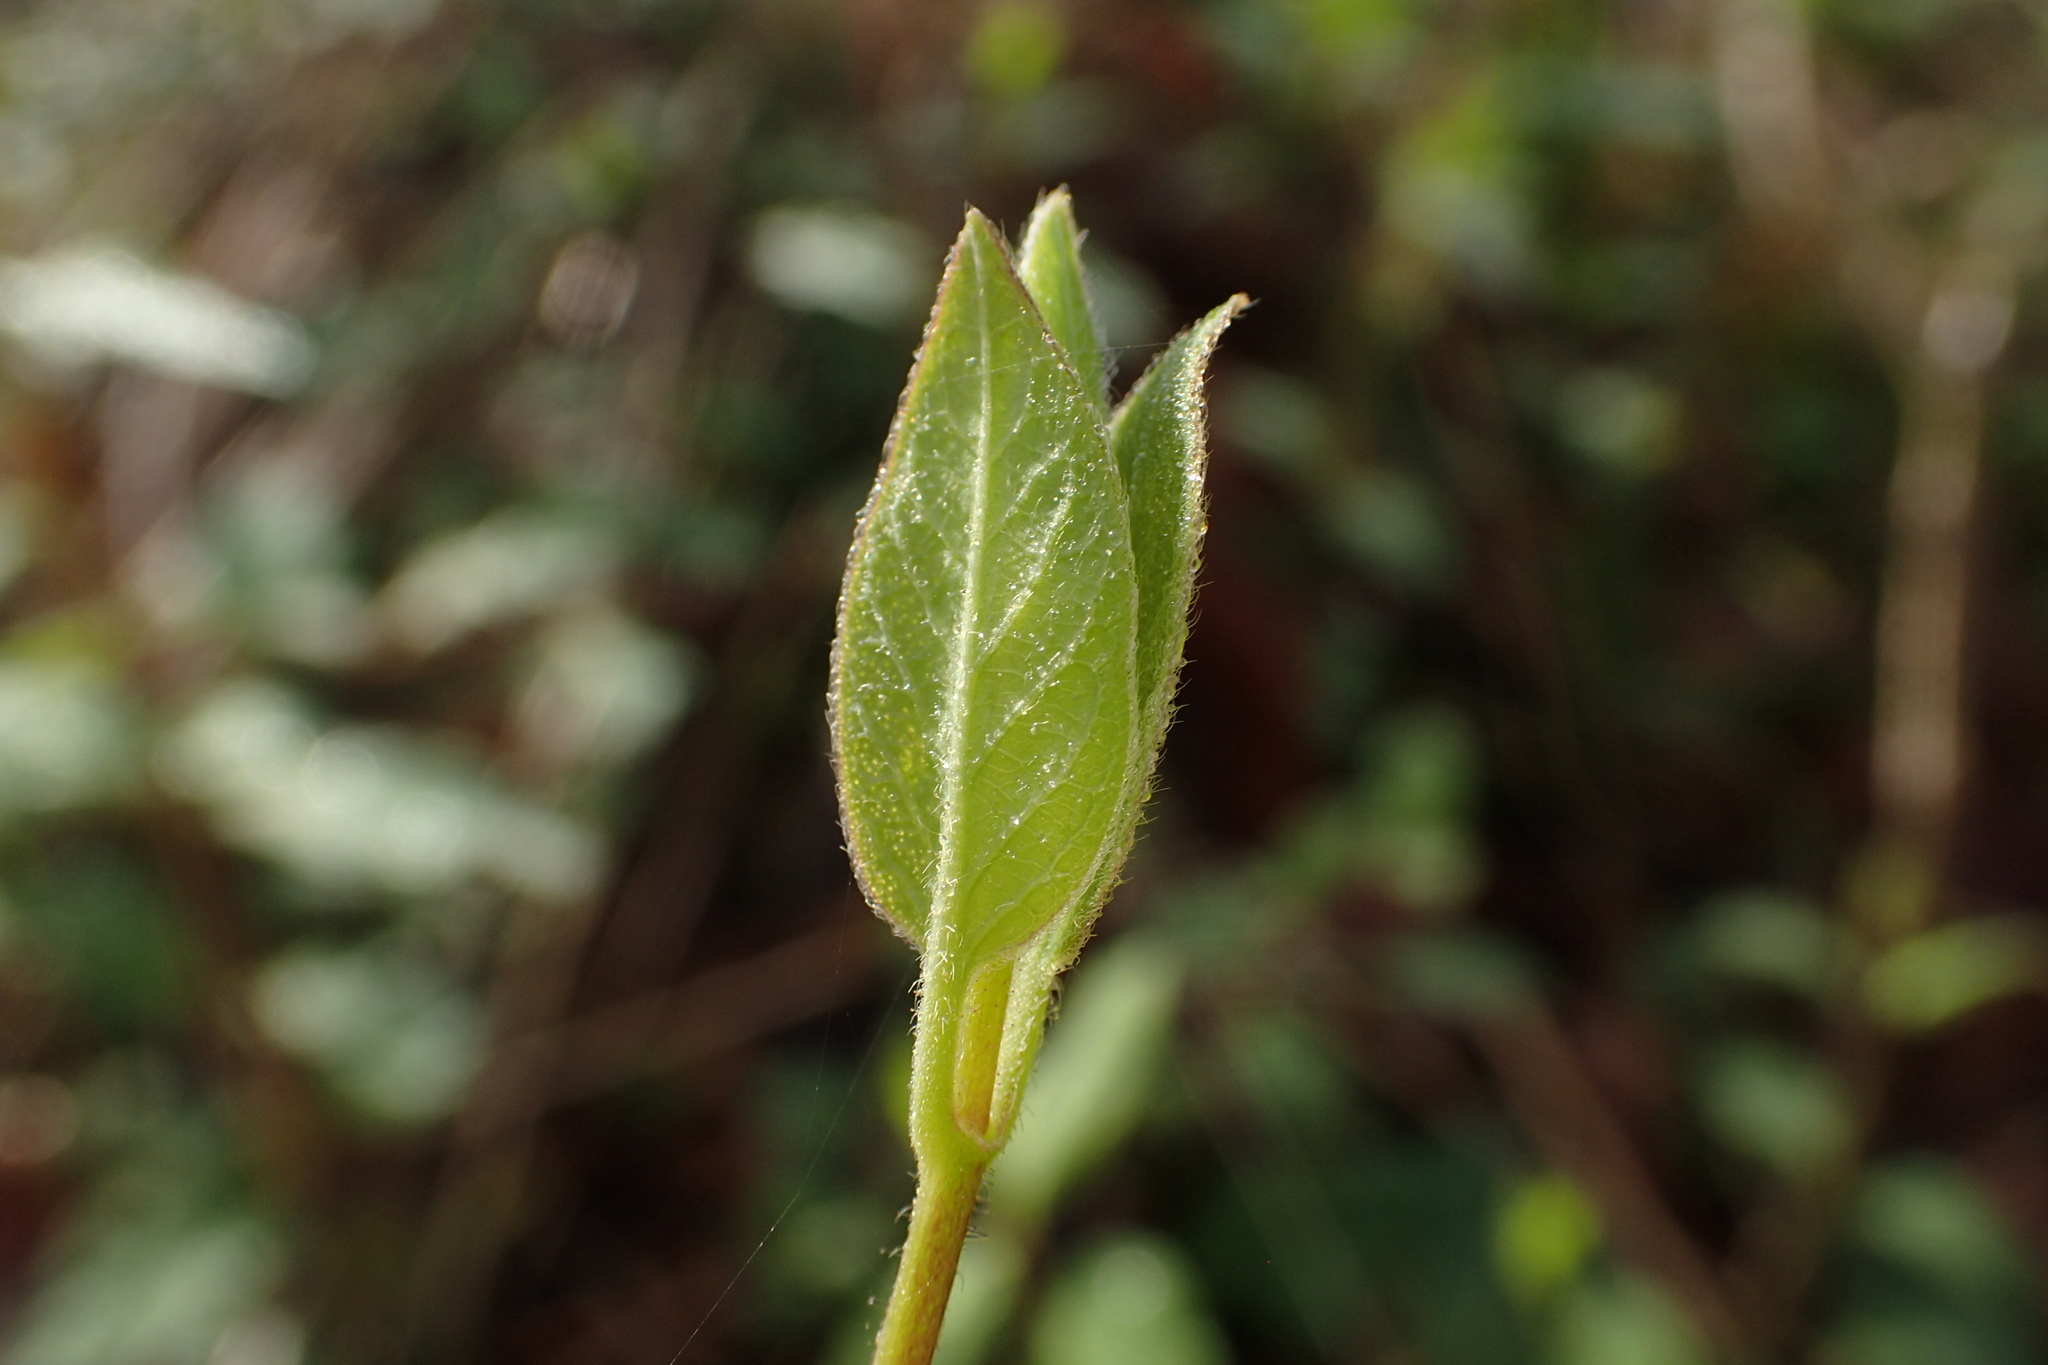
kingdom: Plantae
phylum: Tracheophyta
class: Magnoliopsida
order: Dipsacales
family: Caprifoliaceae
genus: Lonicera
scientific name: Lonicera japonica
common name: Japanese honeysuckle
